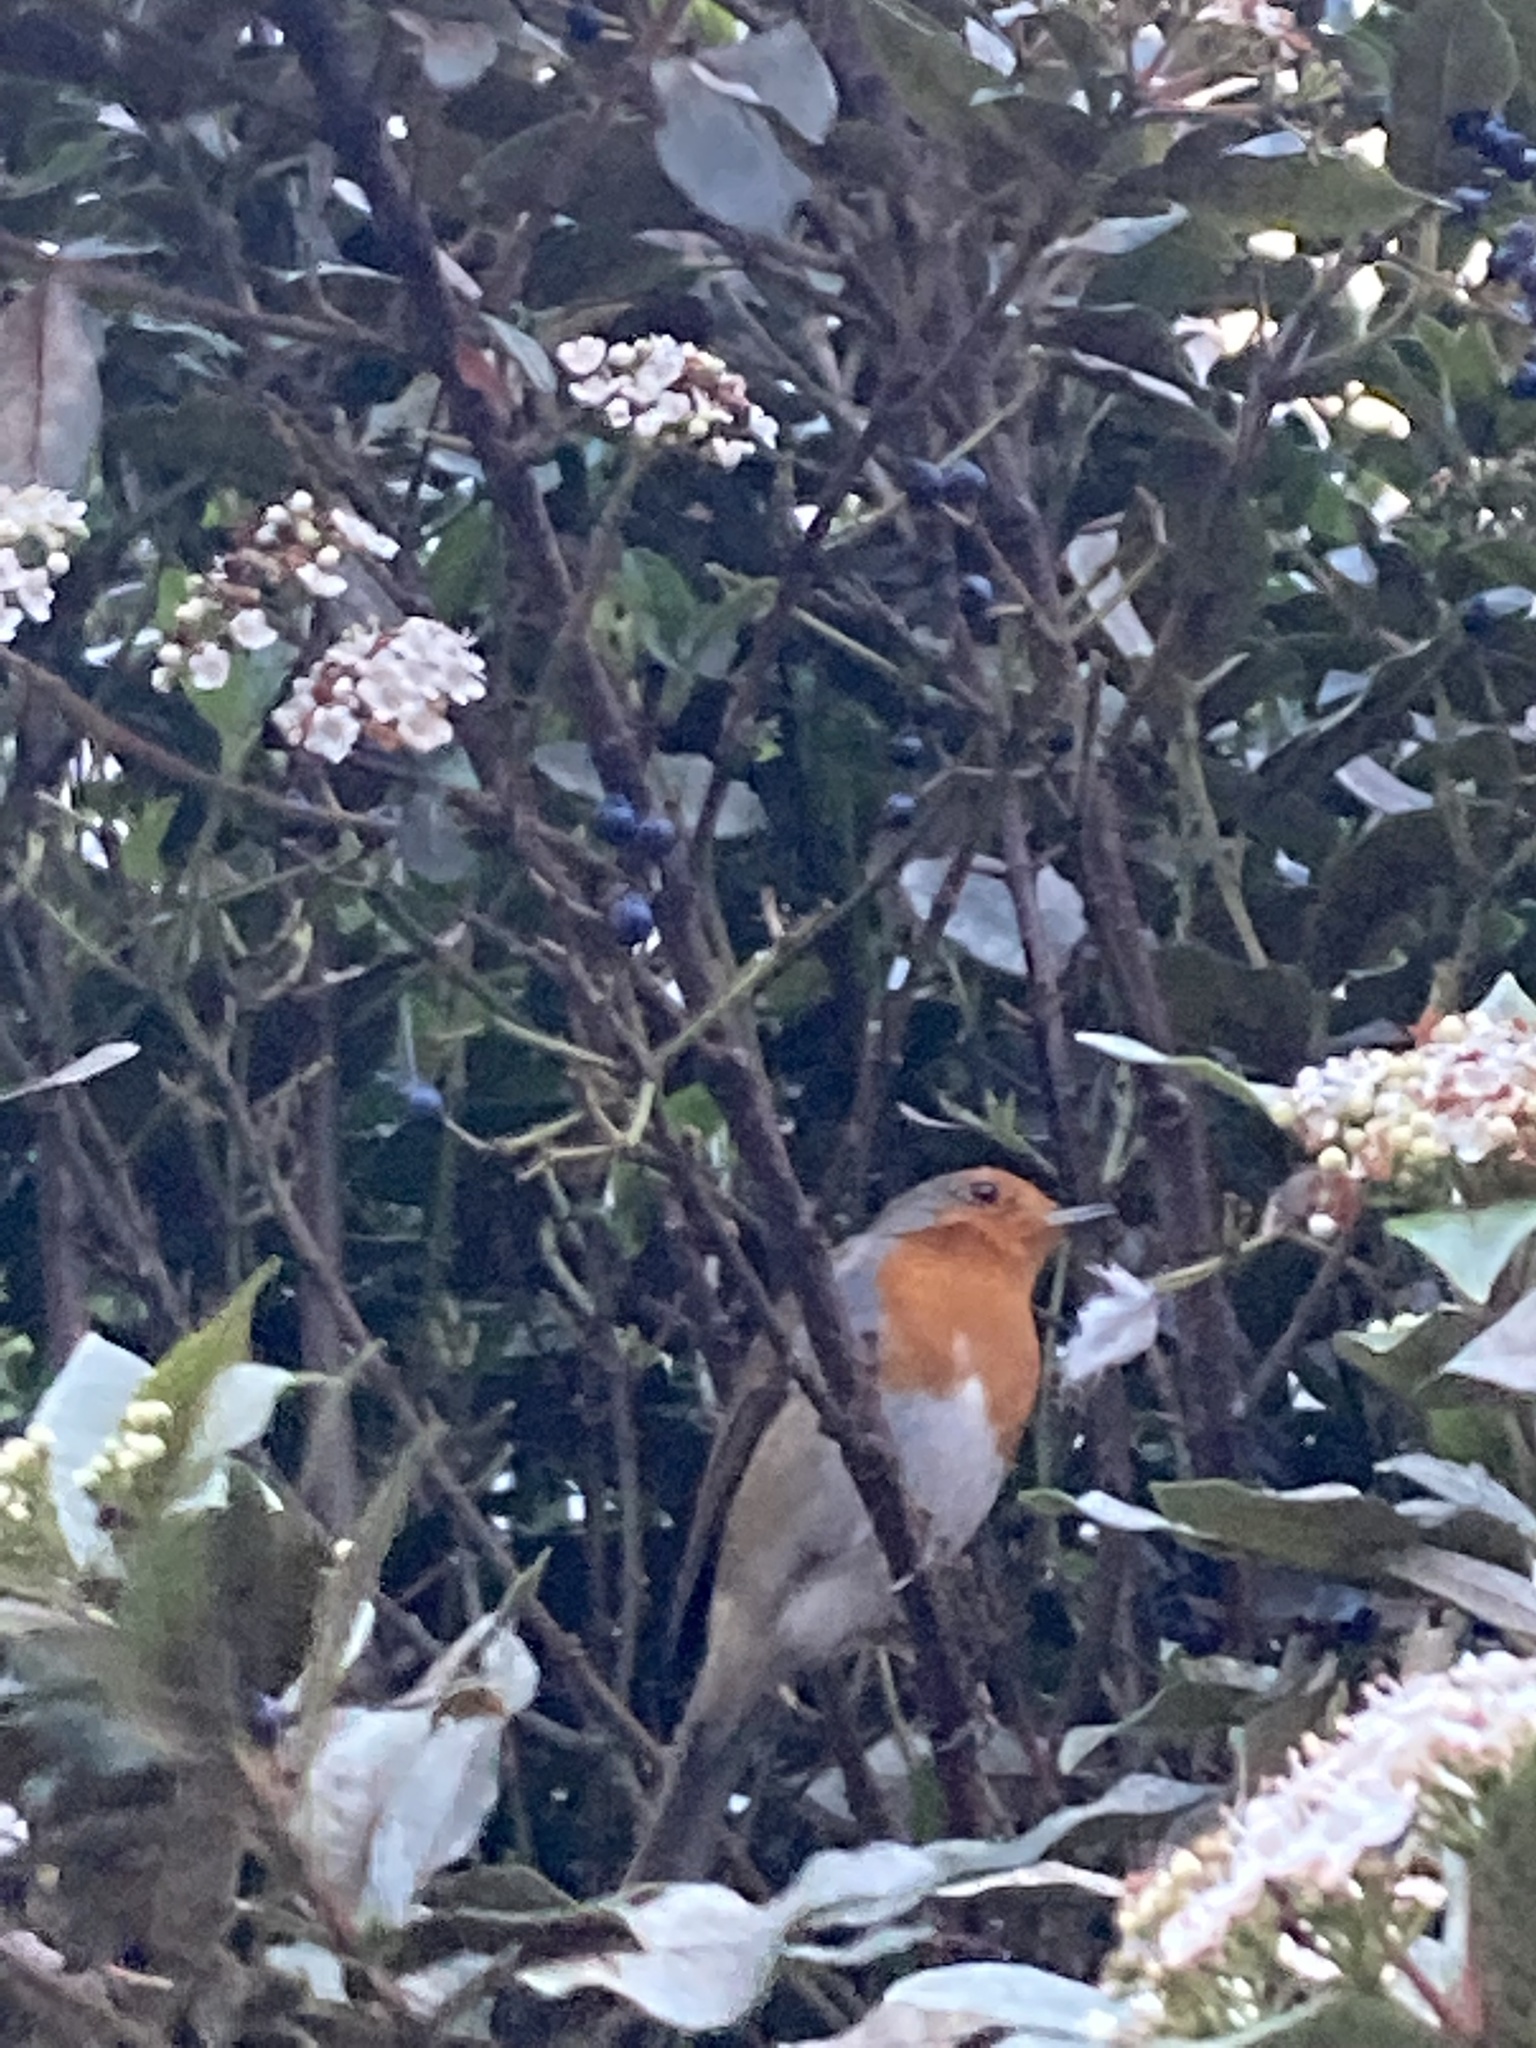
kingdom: Animalia
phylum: Chordata
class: Aves
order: Passeriformes
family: Muscicapidae
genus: Erithacus
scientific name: Erithacus rubecula
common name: European robin
